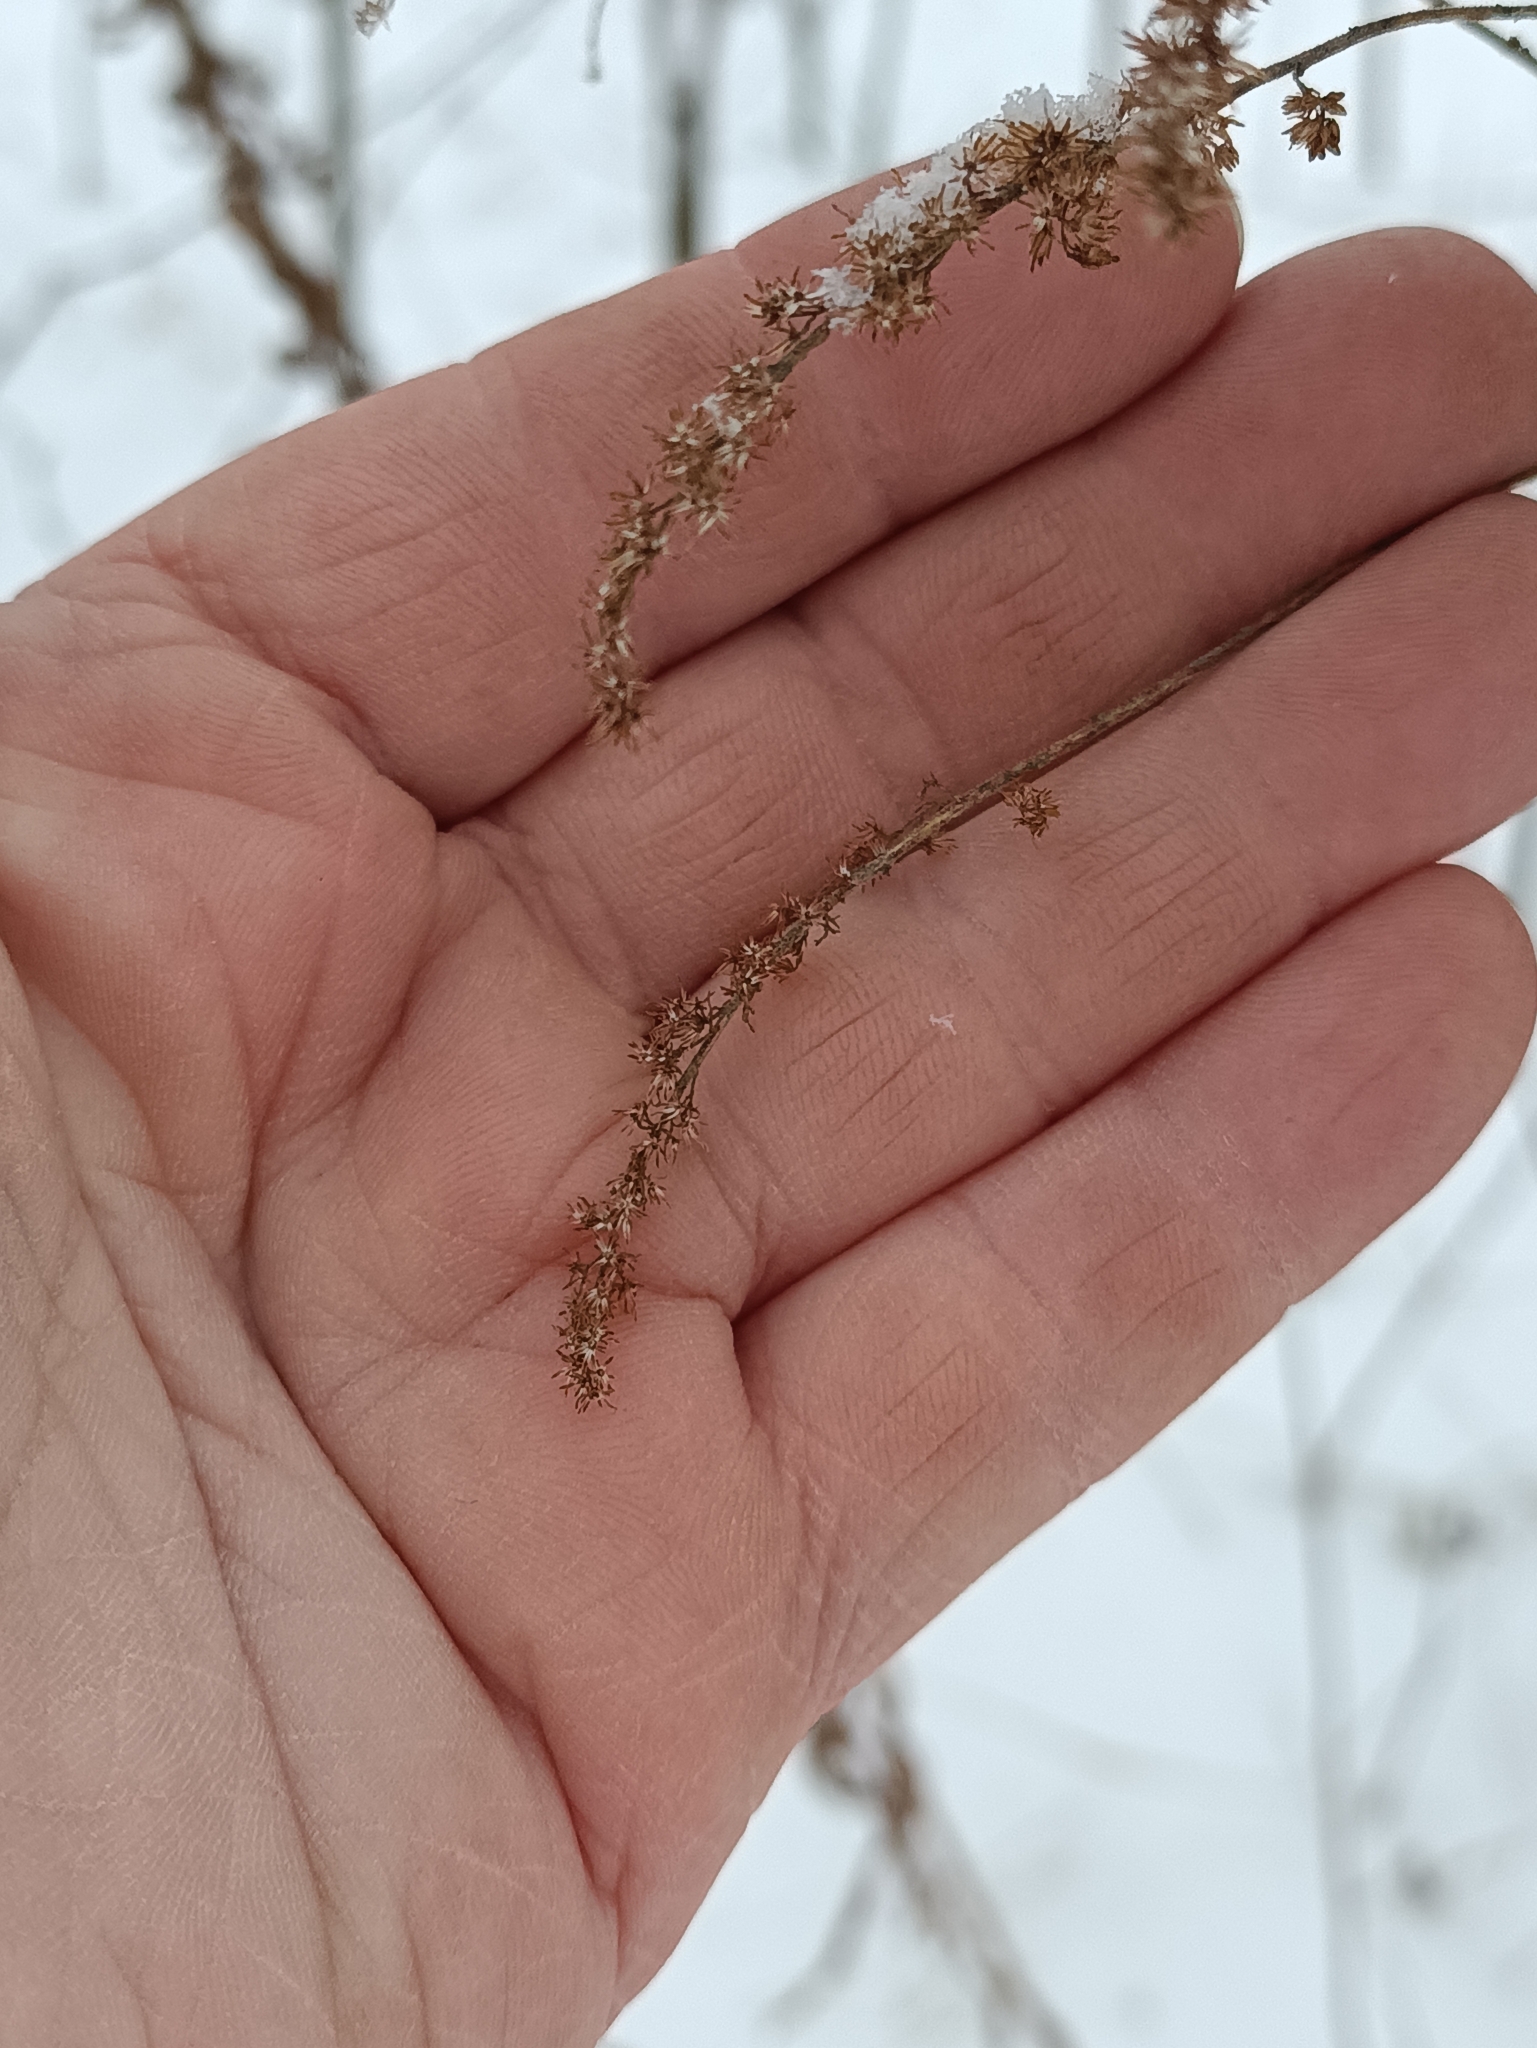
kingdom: Plantae
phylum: Tracheophyta
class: Magnoliopsida
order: Asterales
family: Asteraceae
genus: Solidago
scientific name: Solidago canadensis
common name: Canada goldenrod
